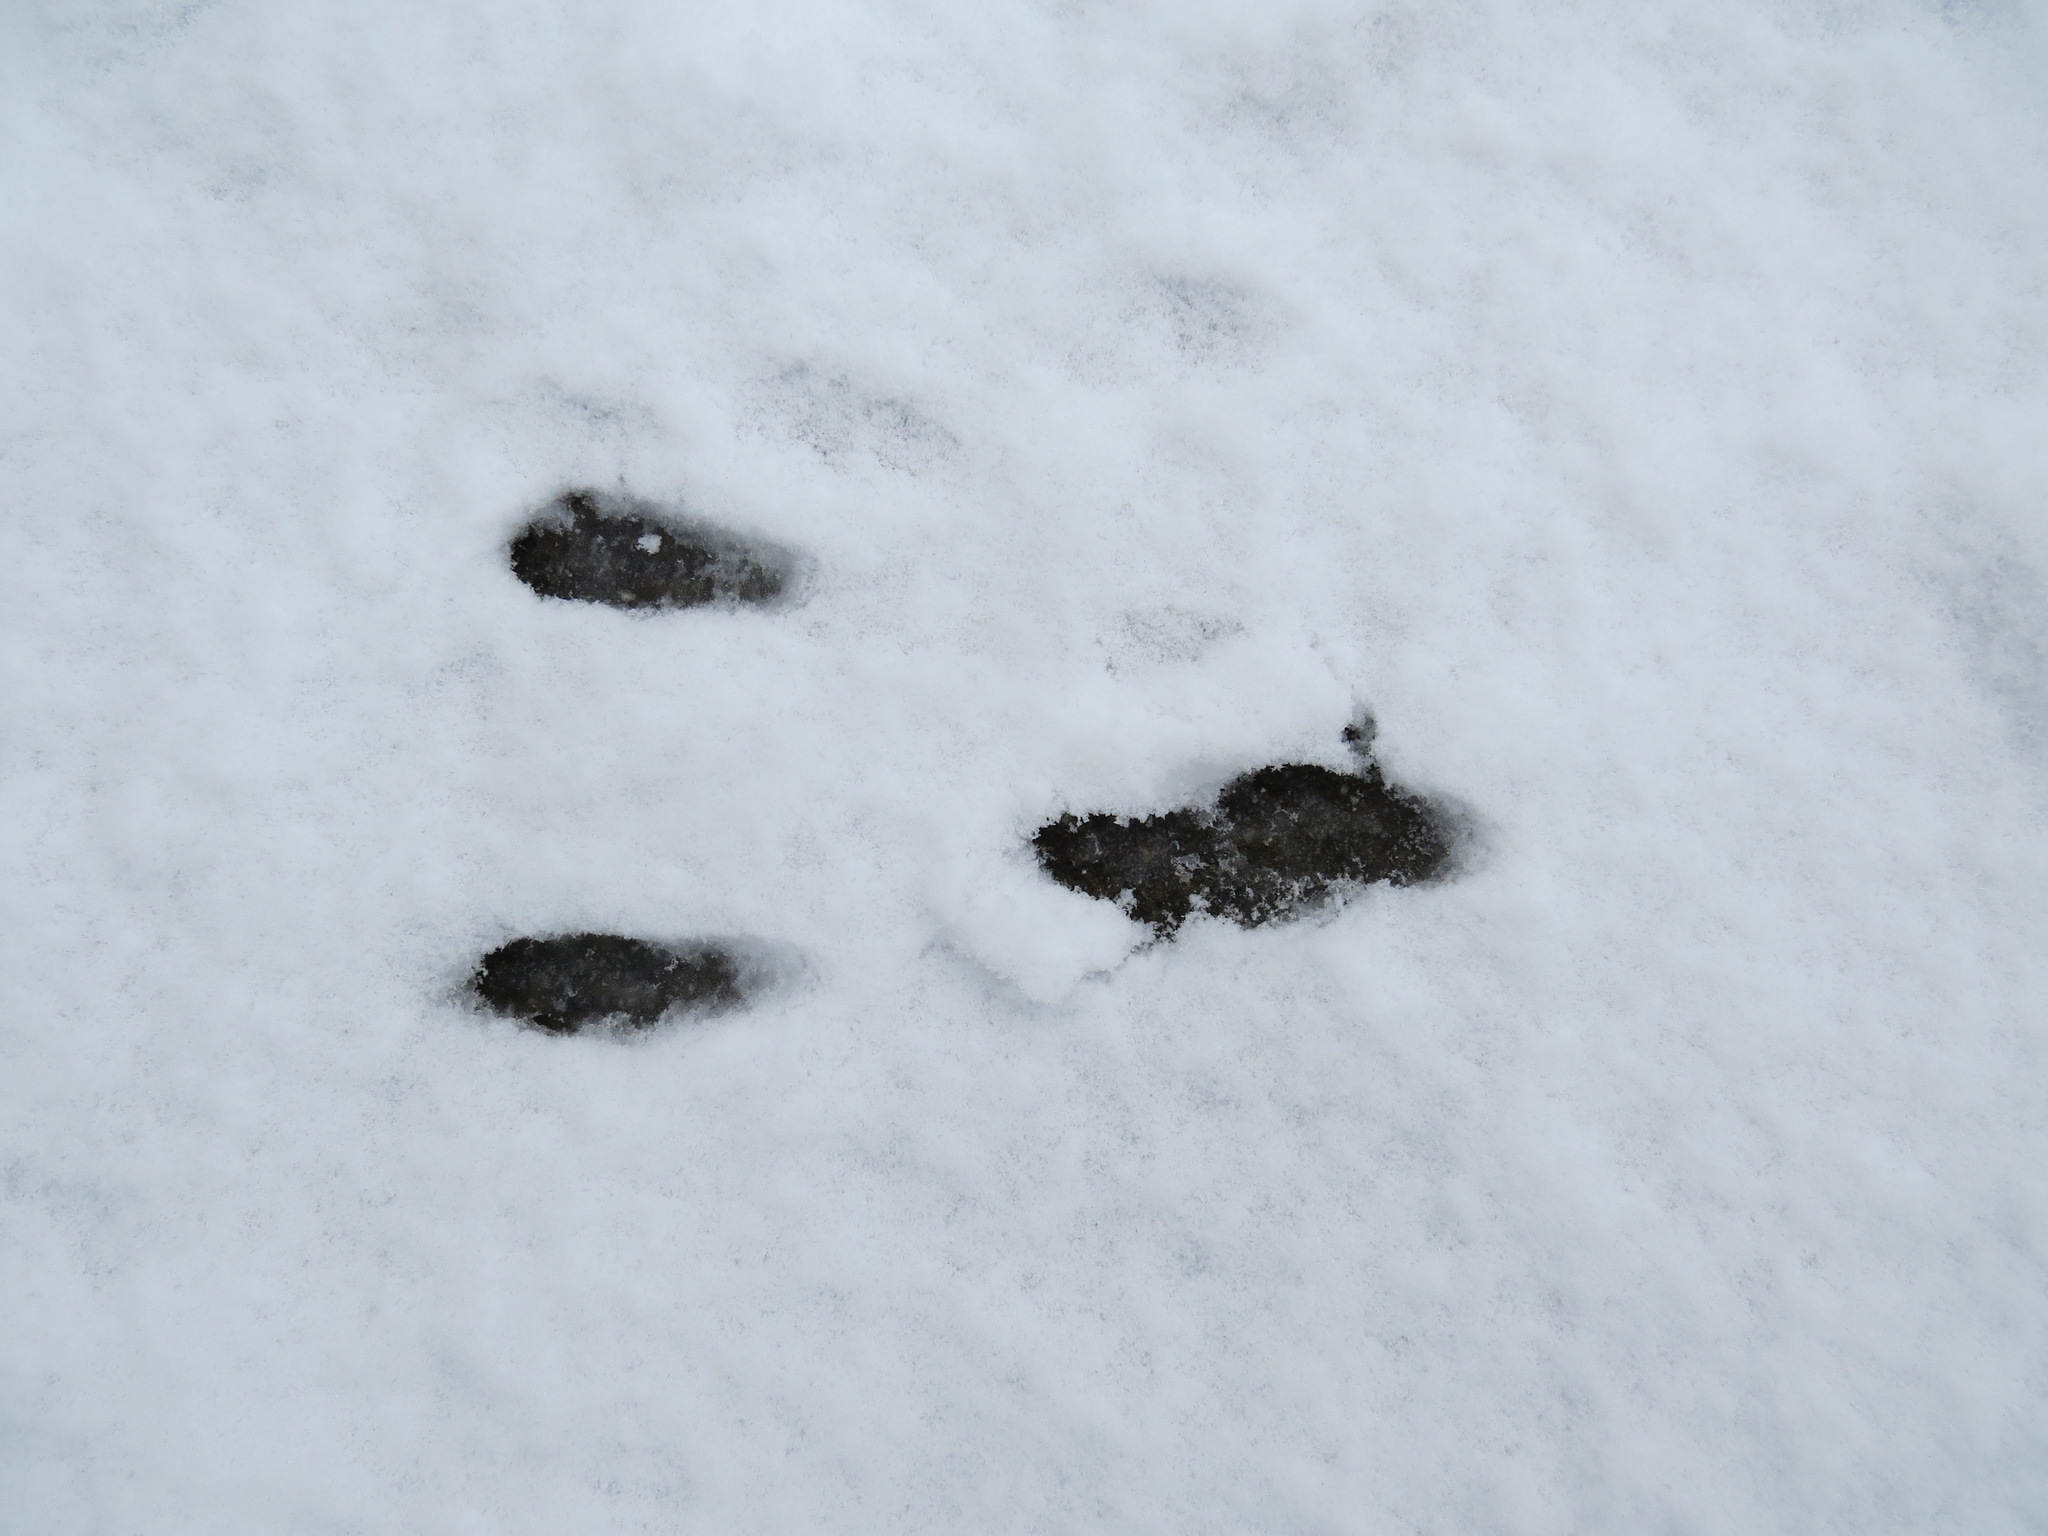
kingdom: Animalia
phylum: Chordata
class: Mammalia
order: Lagomorpha
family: Leporidae
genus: Sylvilagus
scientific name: Sylvilagus bachmani
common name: Brush rabbit
